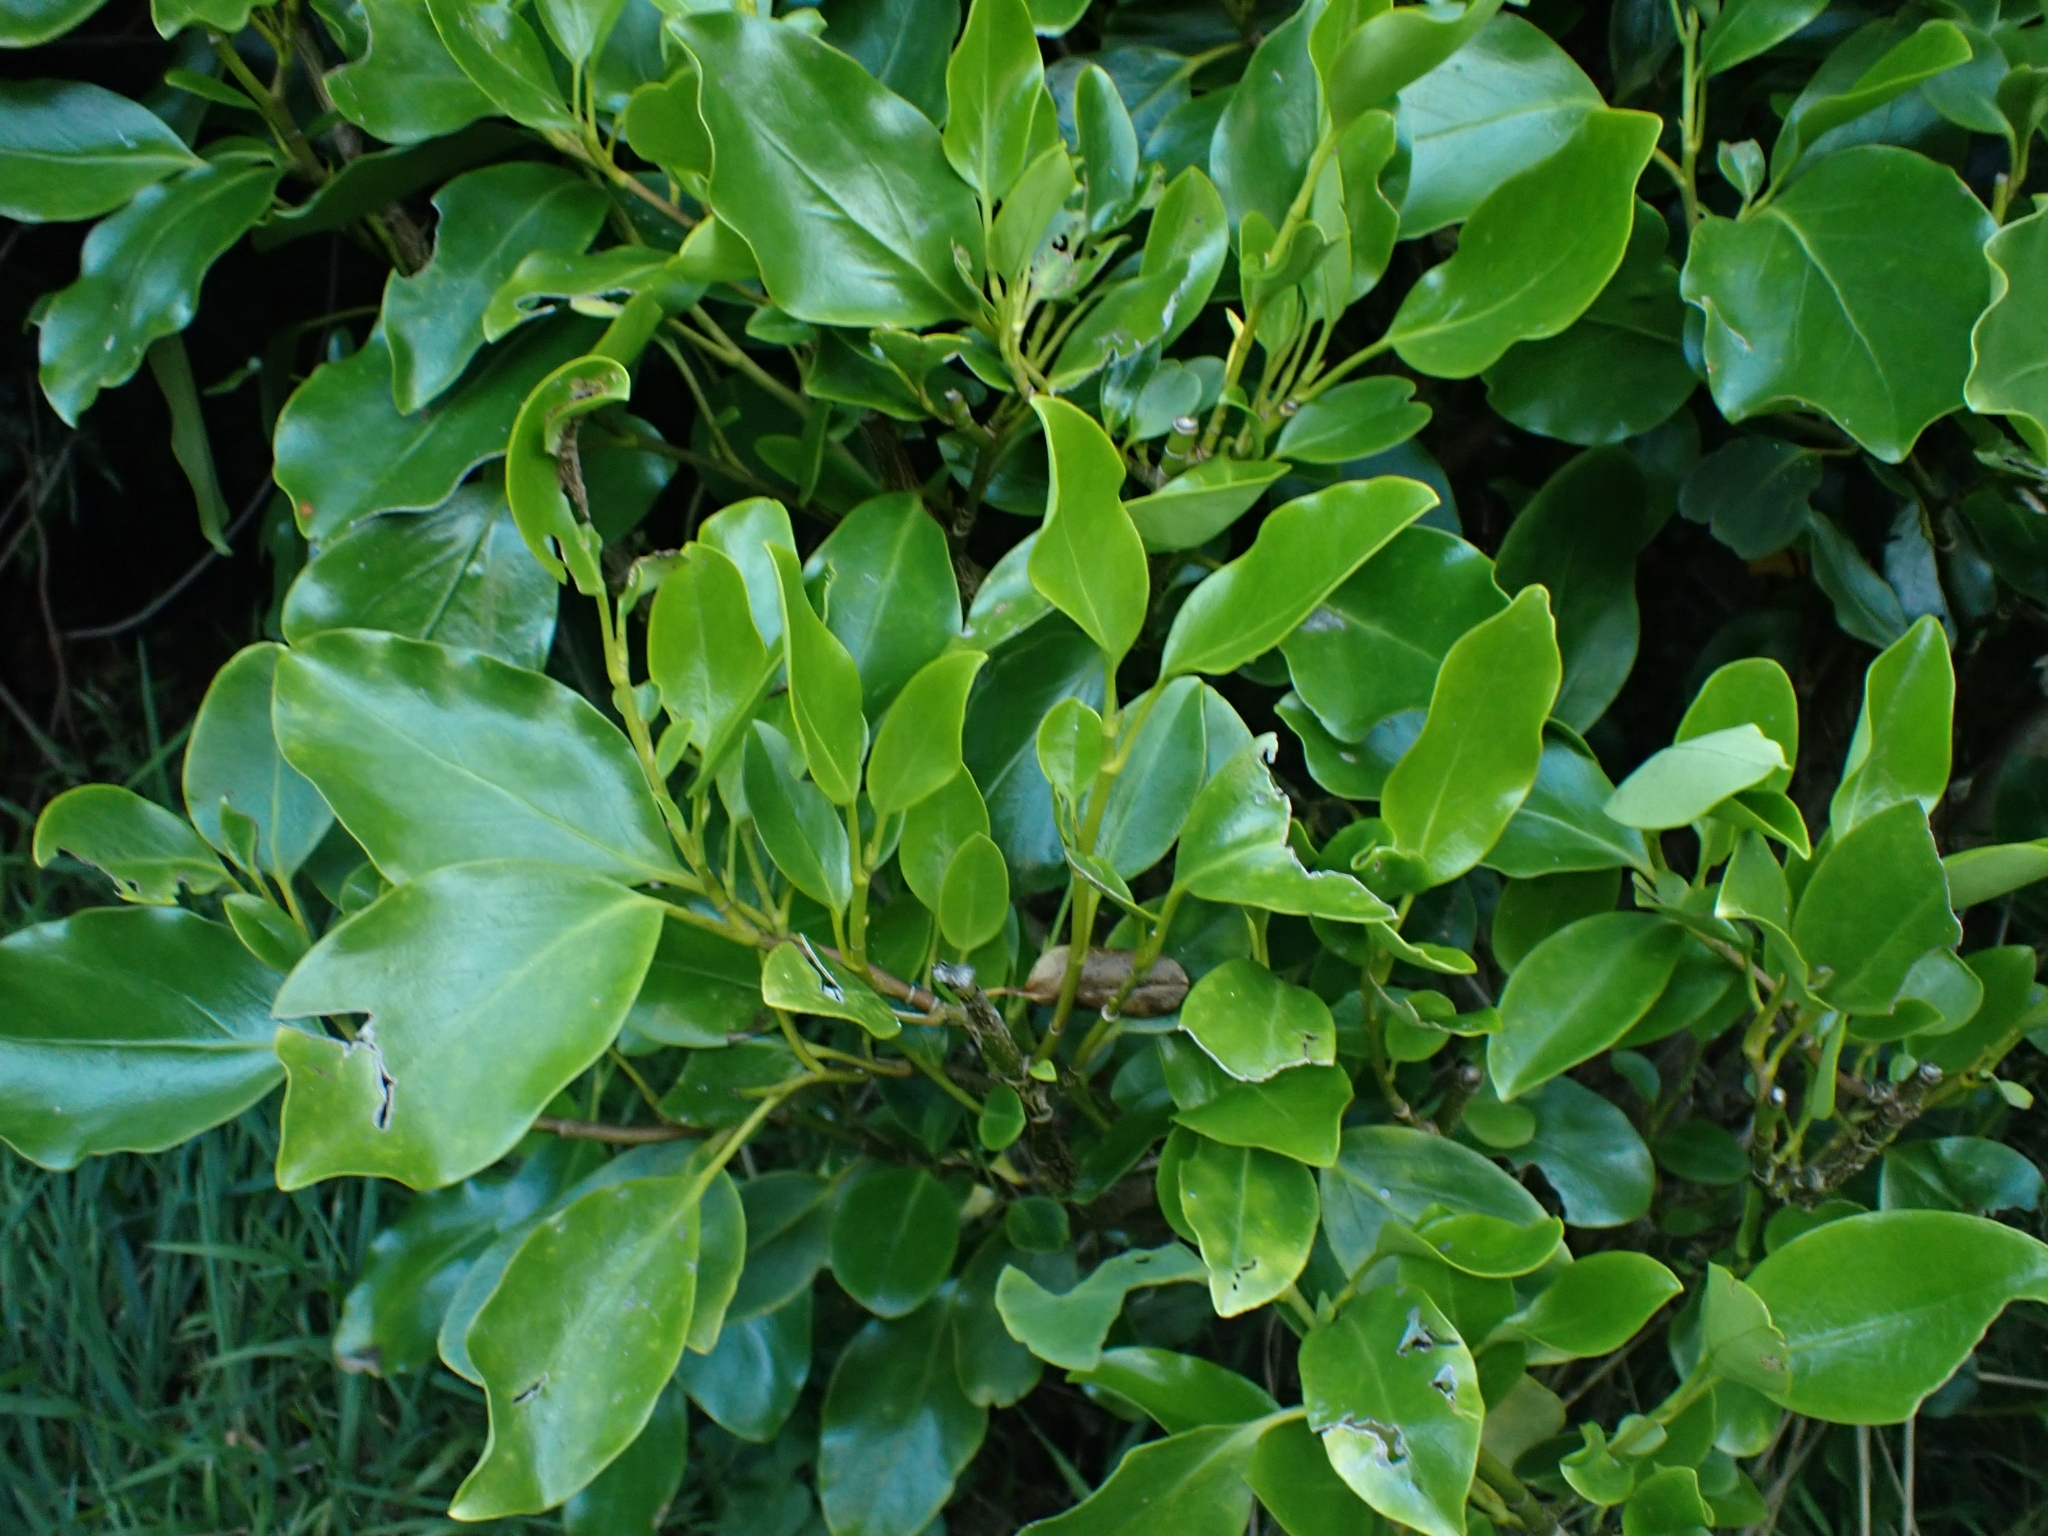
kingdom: Plantae
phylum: Tracheophyta
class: Magnoliopsida
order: Apiales
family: Griseliniaceae
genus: Griselinia
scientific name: Griselinia littoralis
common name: New zealand broadleaf
